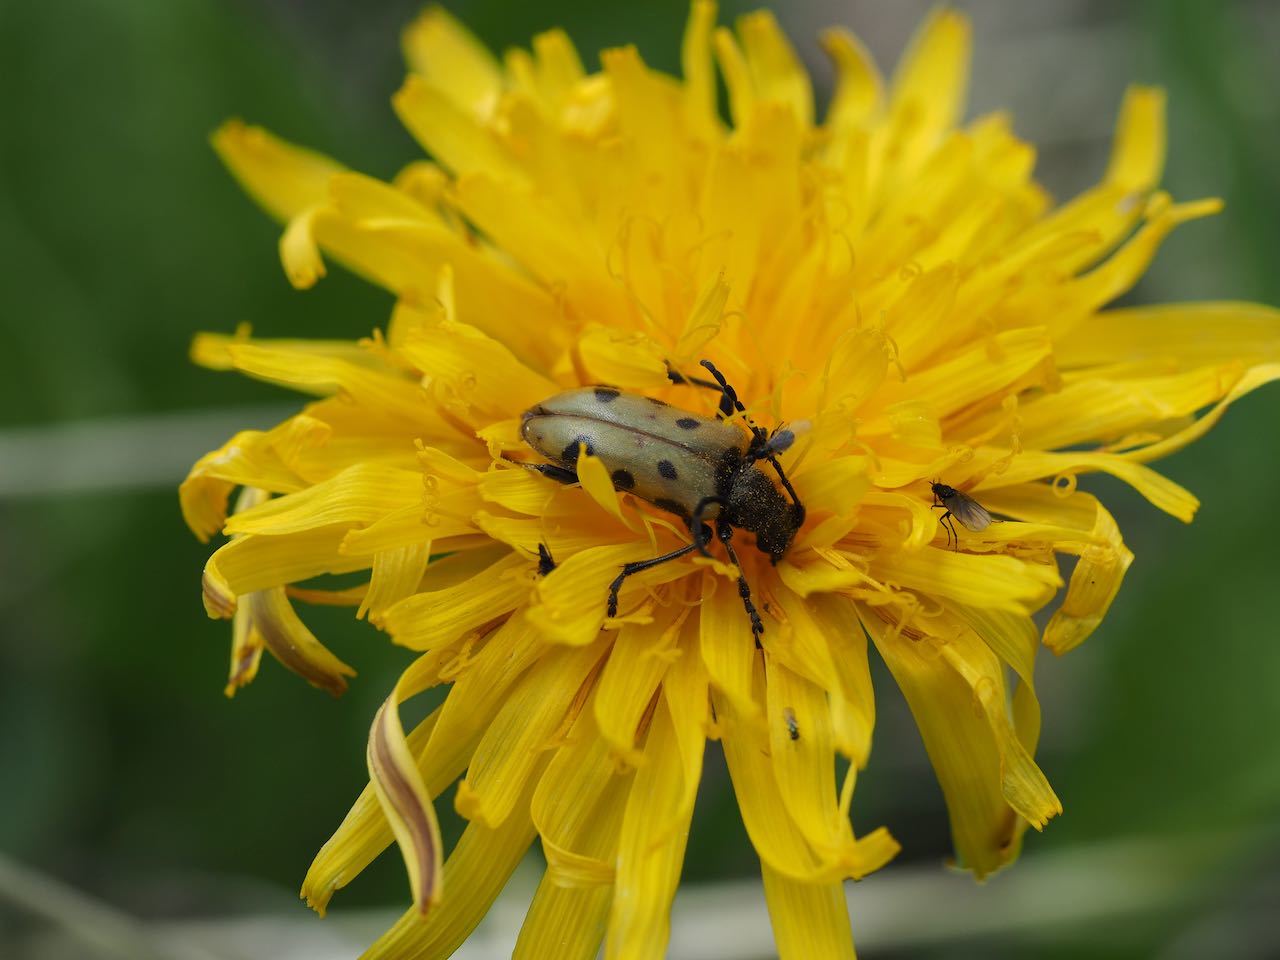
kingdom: Animalia
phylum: Arthropoda
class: Insecta
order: Coleoptera
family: Cerambycidae
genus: Brachyta
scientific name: Brachyta danilevskyi
